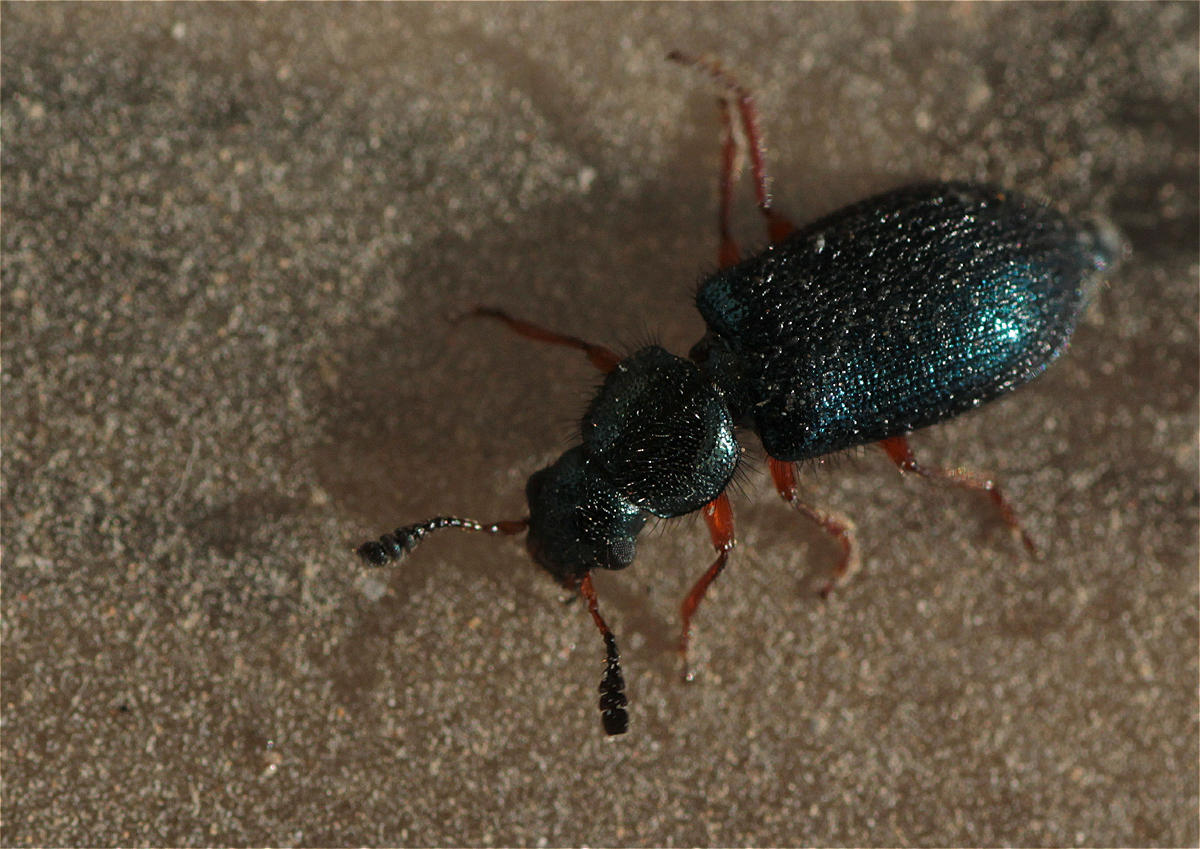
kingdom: Animalia
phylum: Arthropoda
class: Insecta
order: Coleoptera
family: Cleridae
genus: Necrobia
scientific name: Necrobia rufipes
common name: Red-legged ham beetle
